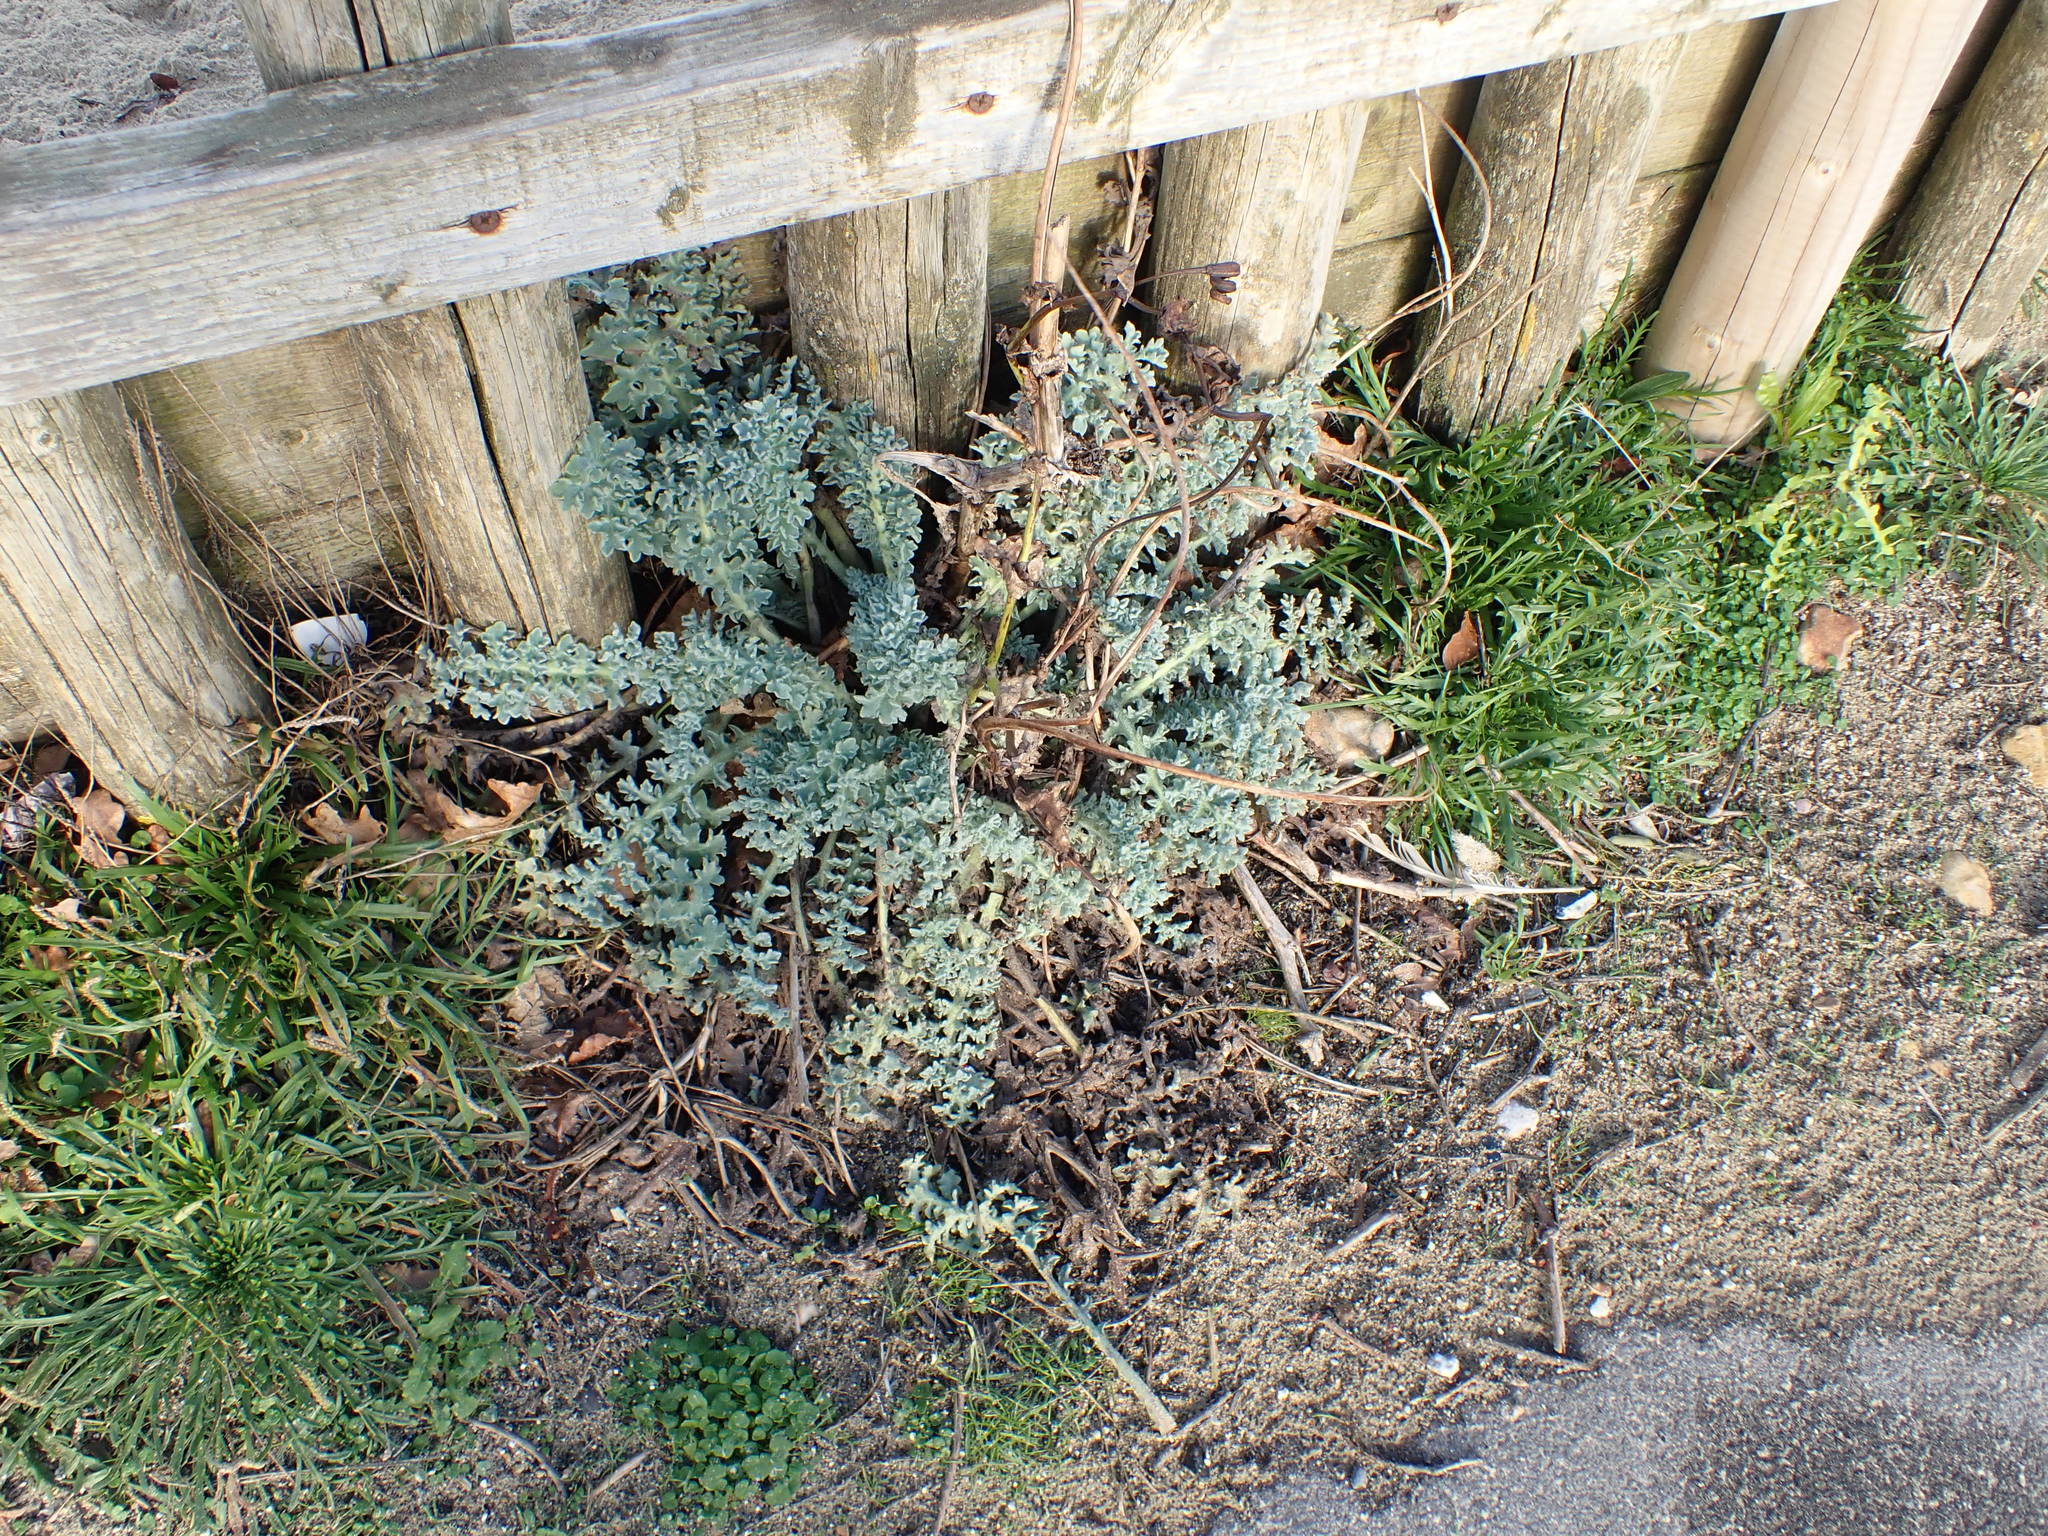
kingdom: Plantae
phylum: Tracheophyta
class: Magnoliopsida
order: Ranunculales
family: Papaveraceae
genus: Glaucium
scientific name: Glaucium flavum
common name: Yellow horned-poppy
